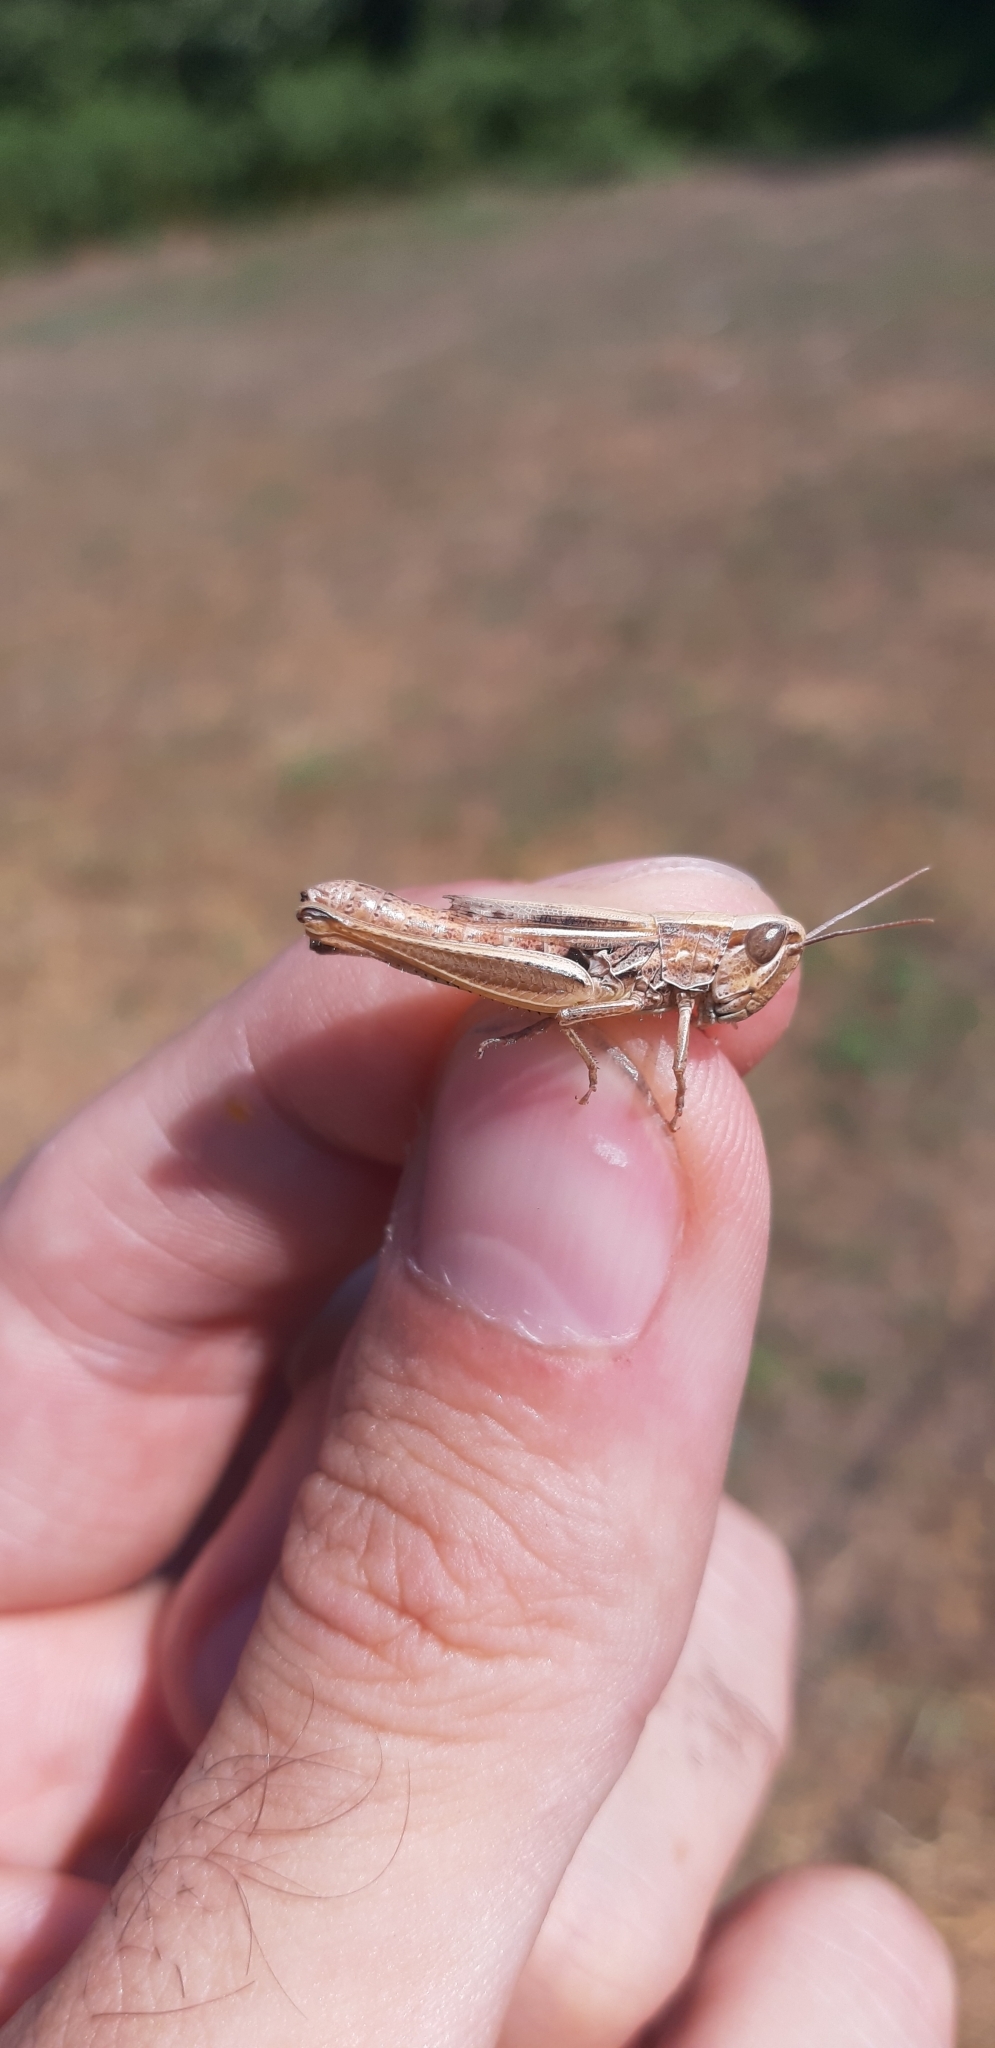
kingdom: Animalia
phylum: Arthropoda
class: Insecta
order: Orthoptera
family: Acrididae
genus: Euchorthippus
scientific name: Euchorthippus declivus
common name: Common straw grasshopper
